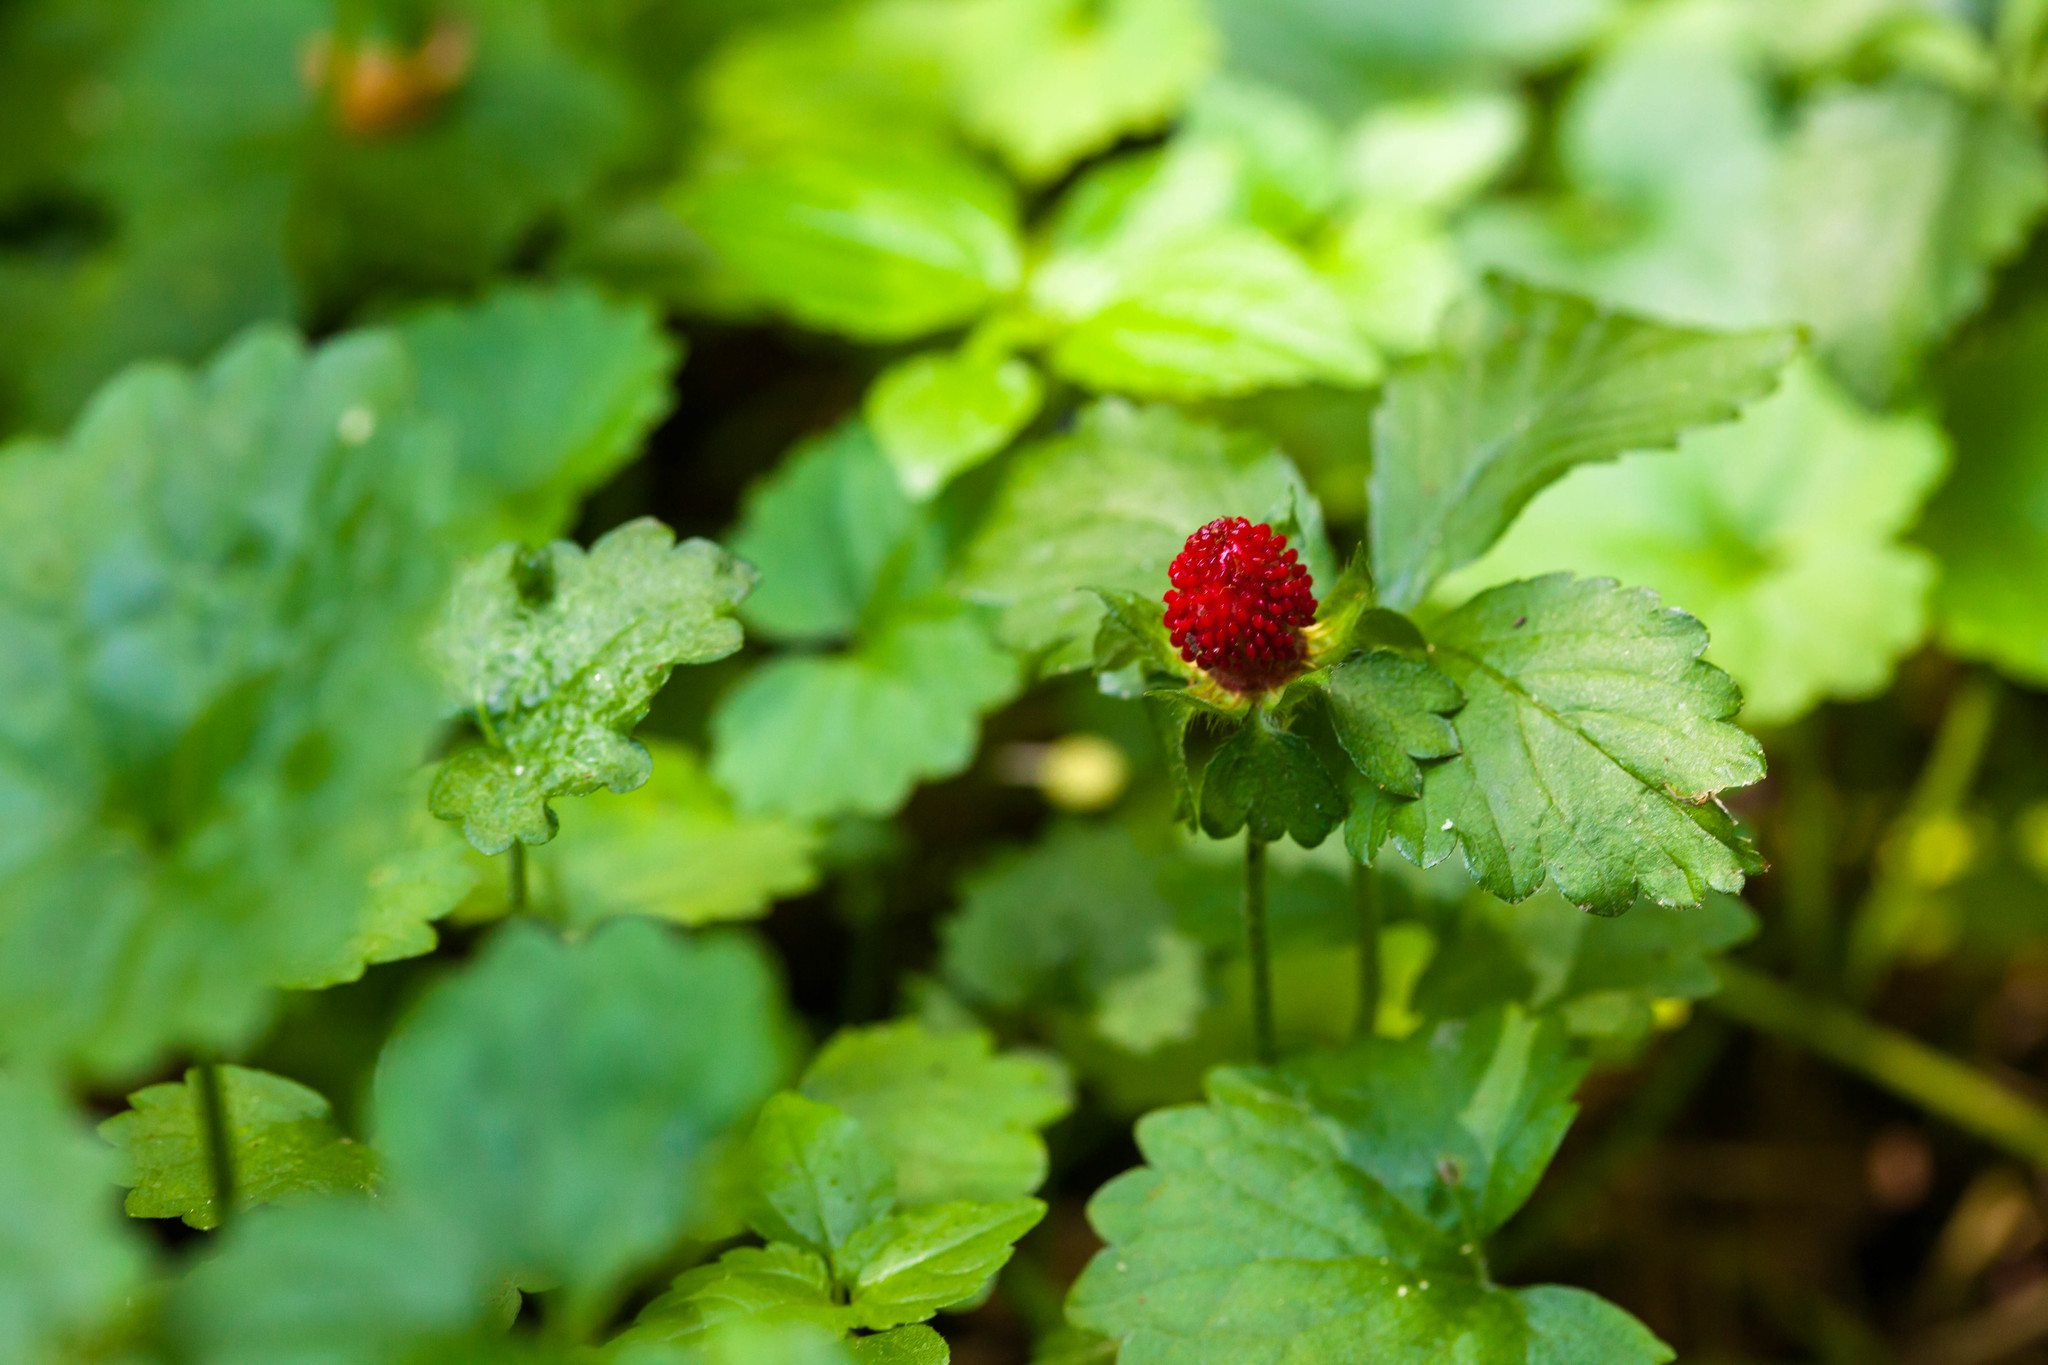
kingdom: Plantae
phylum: Tracheophyta
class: Magnoliopsida
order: Rosales
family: Rosaceae
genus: Potentilla
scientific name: Potentilla indica
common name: Yellow-flowered strawberry
